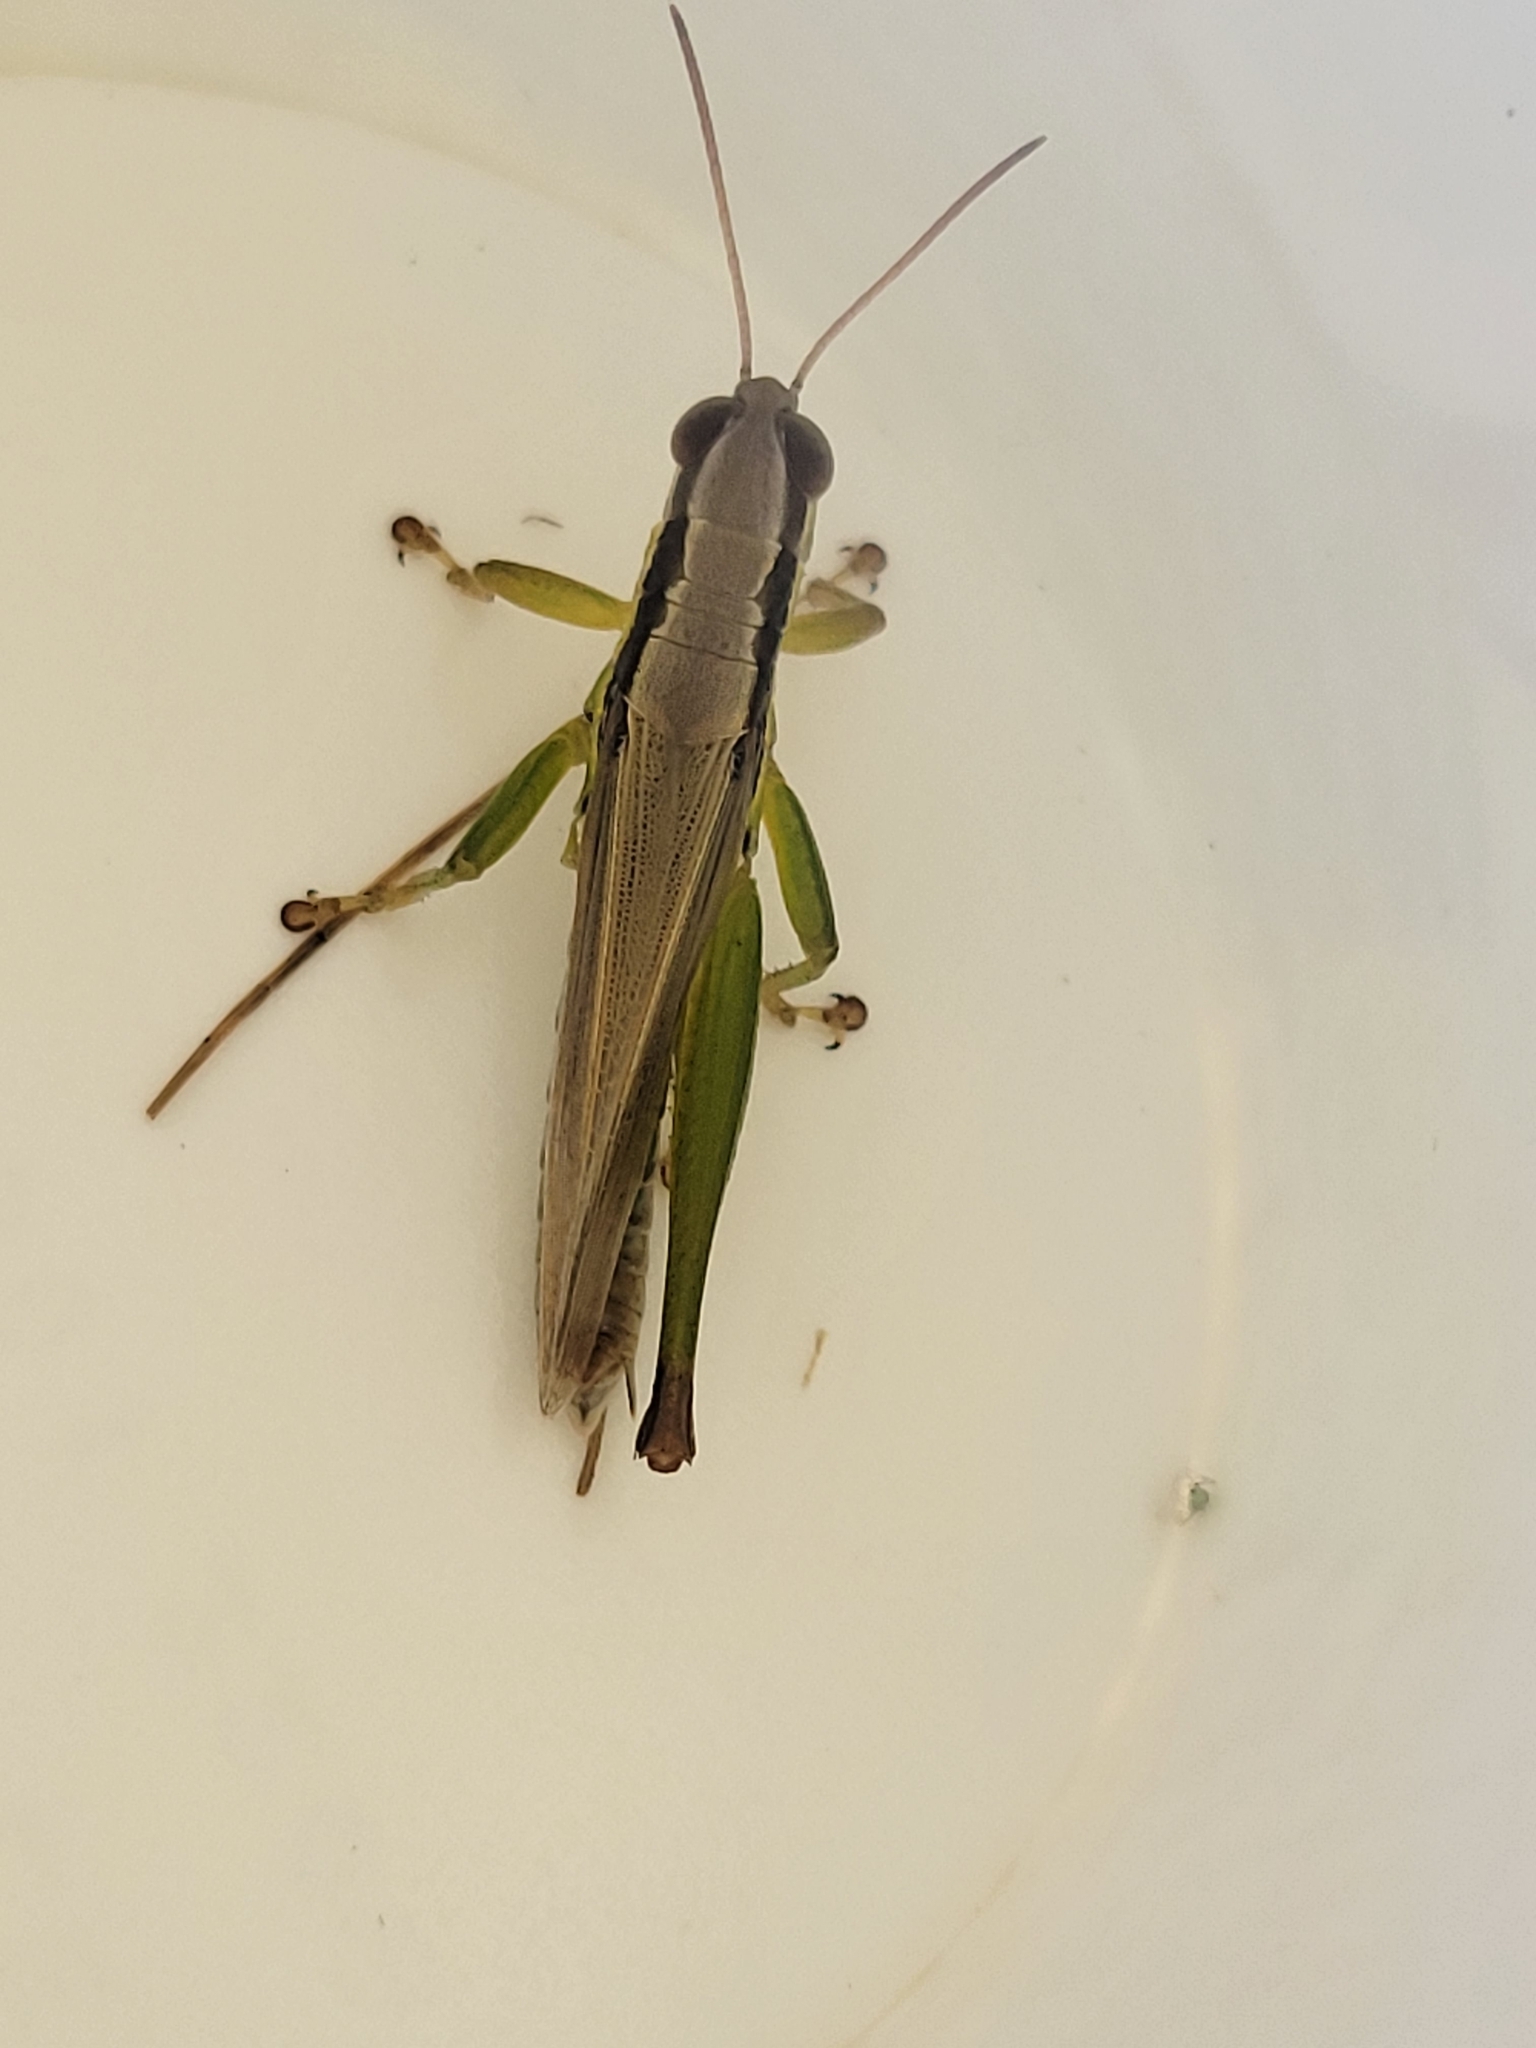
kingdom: Animalia
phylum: Arthropoda
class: Insecta
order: Orthoptera
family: Acrididae
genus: Oxya
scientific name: Oxya velox
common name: Rice grasshopper
